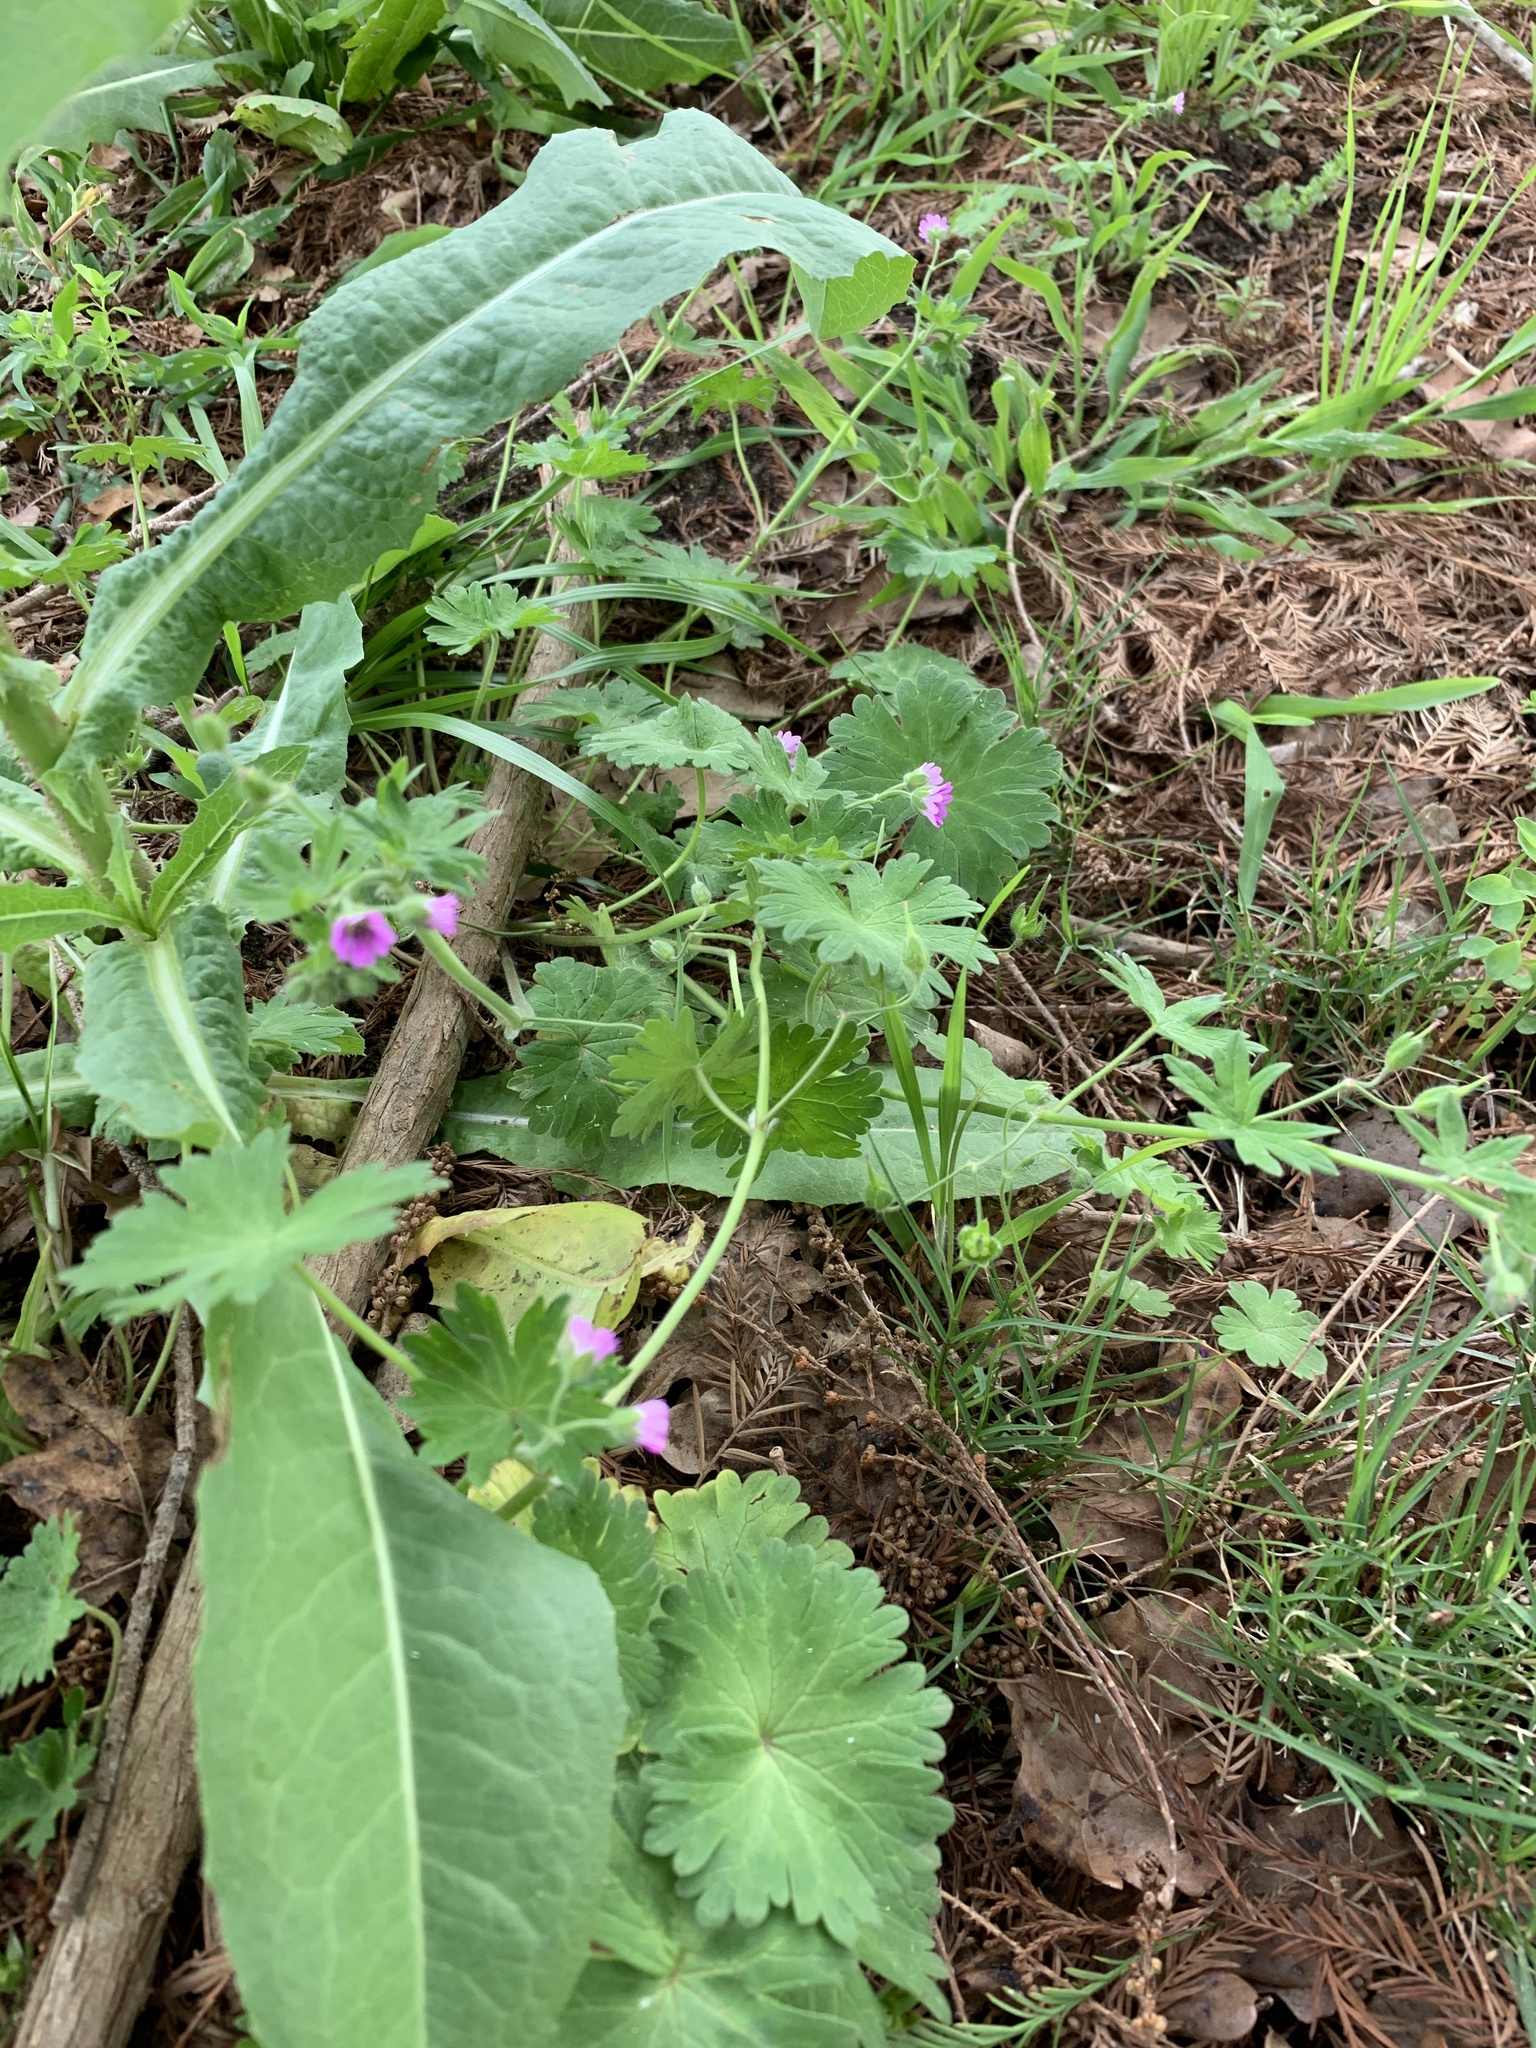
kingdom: Plantae
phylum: Tracheophyta
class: Magnoliopsida
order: Geraniales
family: Geraniaceae
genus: Geranium
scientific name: Geranium molle
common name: Dove's-foot crane's-bill
